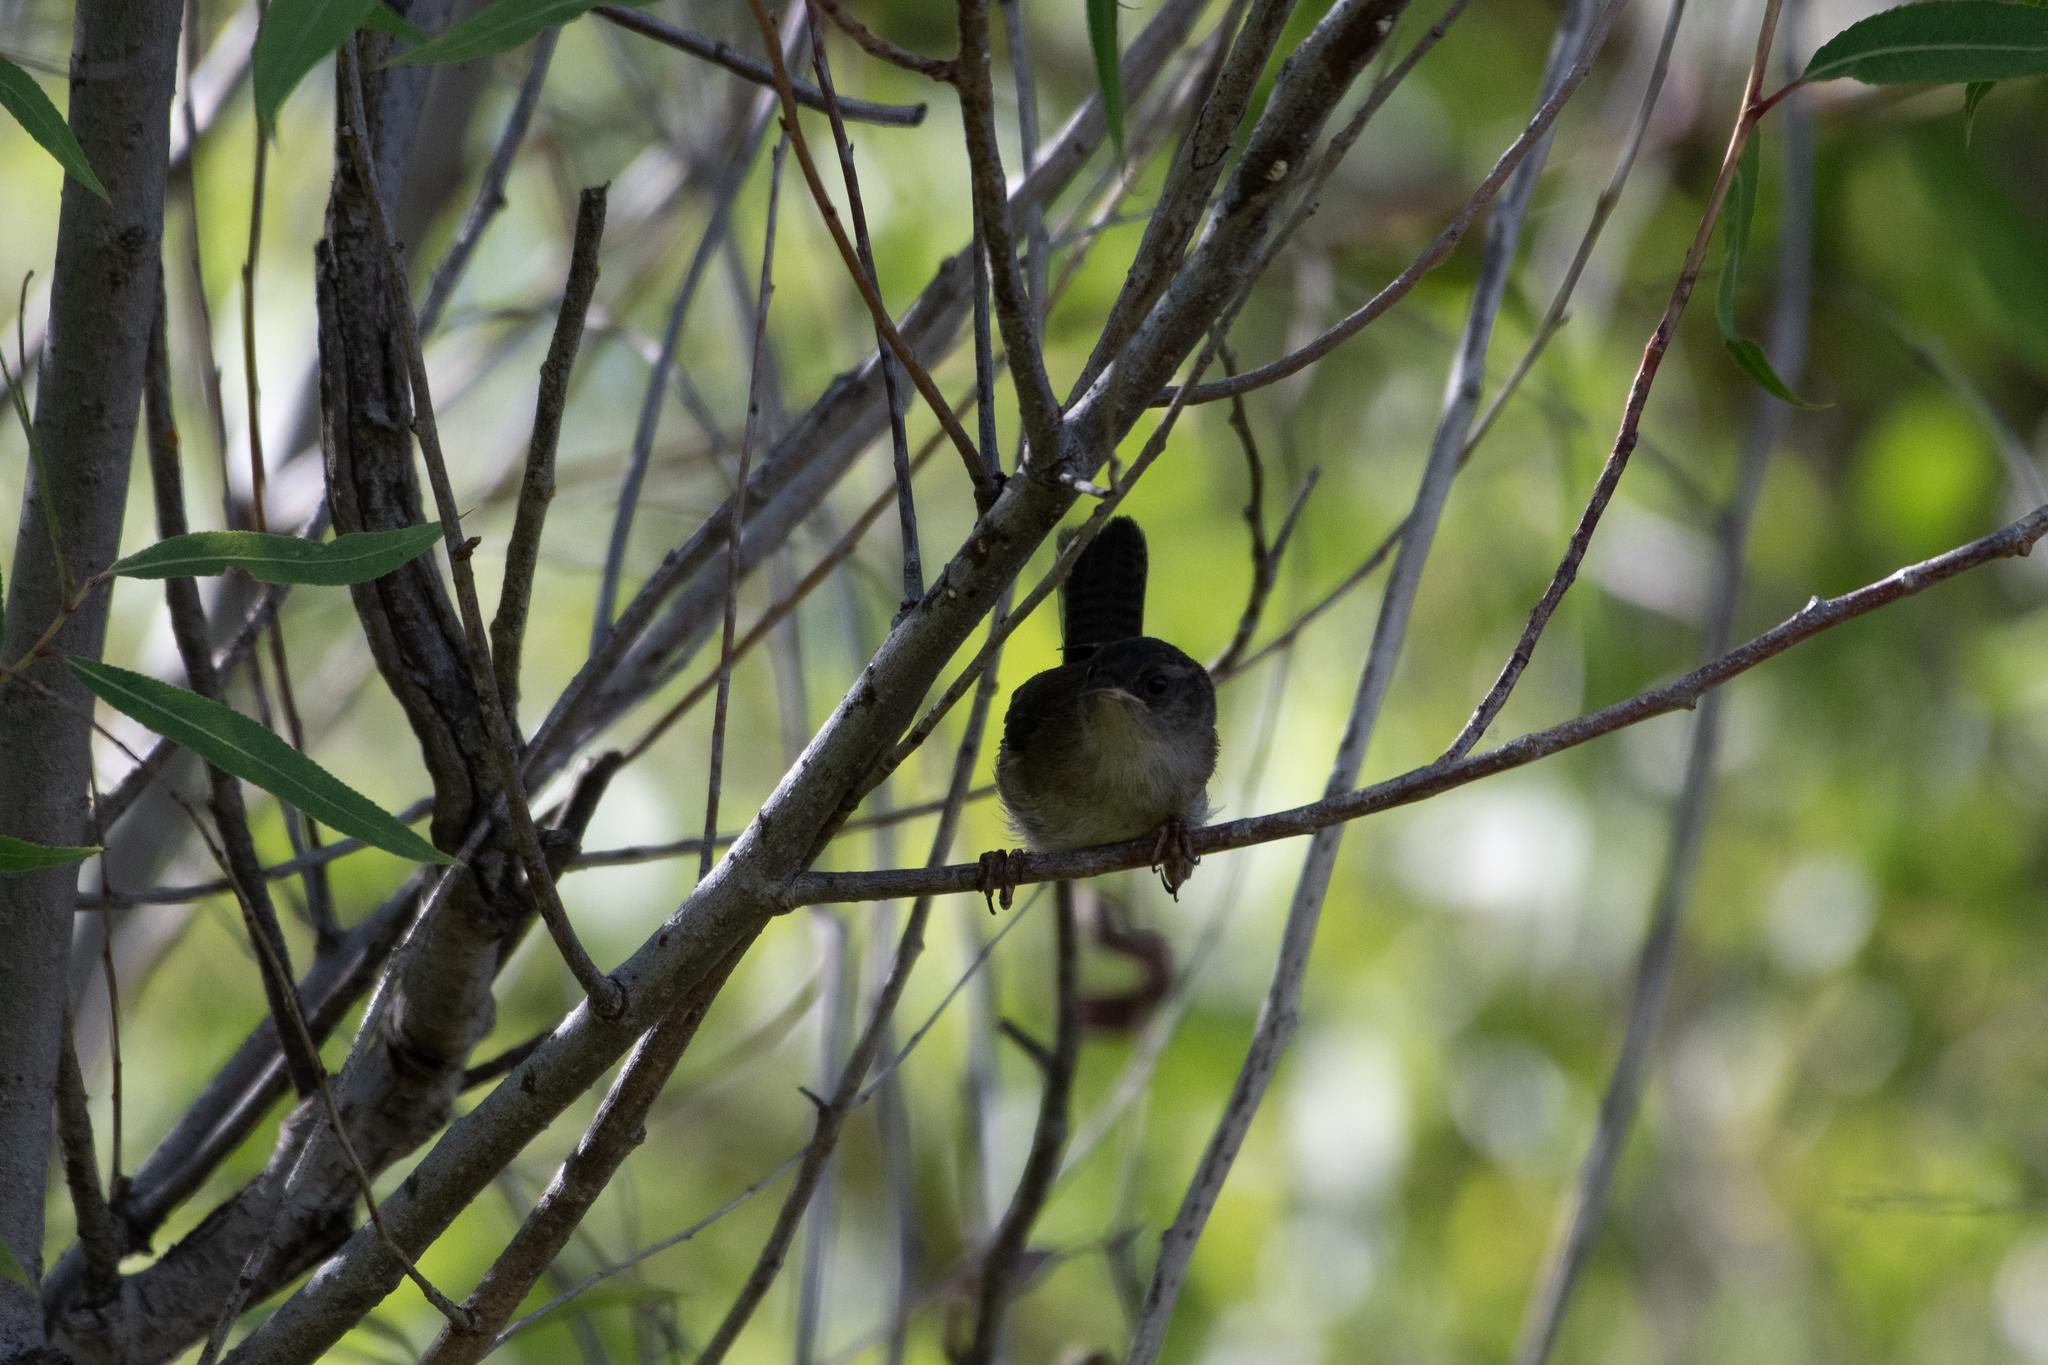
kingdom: Animalia
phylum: Chordata
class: Aves
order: Passeriformes
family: Troglodytidae
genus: Cistothorus
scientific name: Cistothorus palustris
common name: Marsh wren
